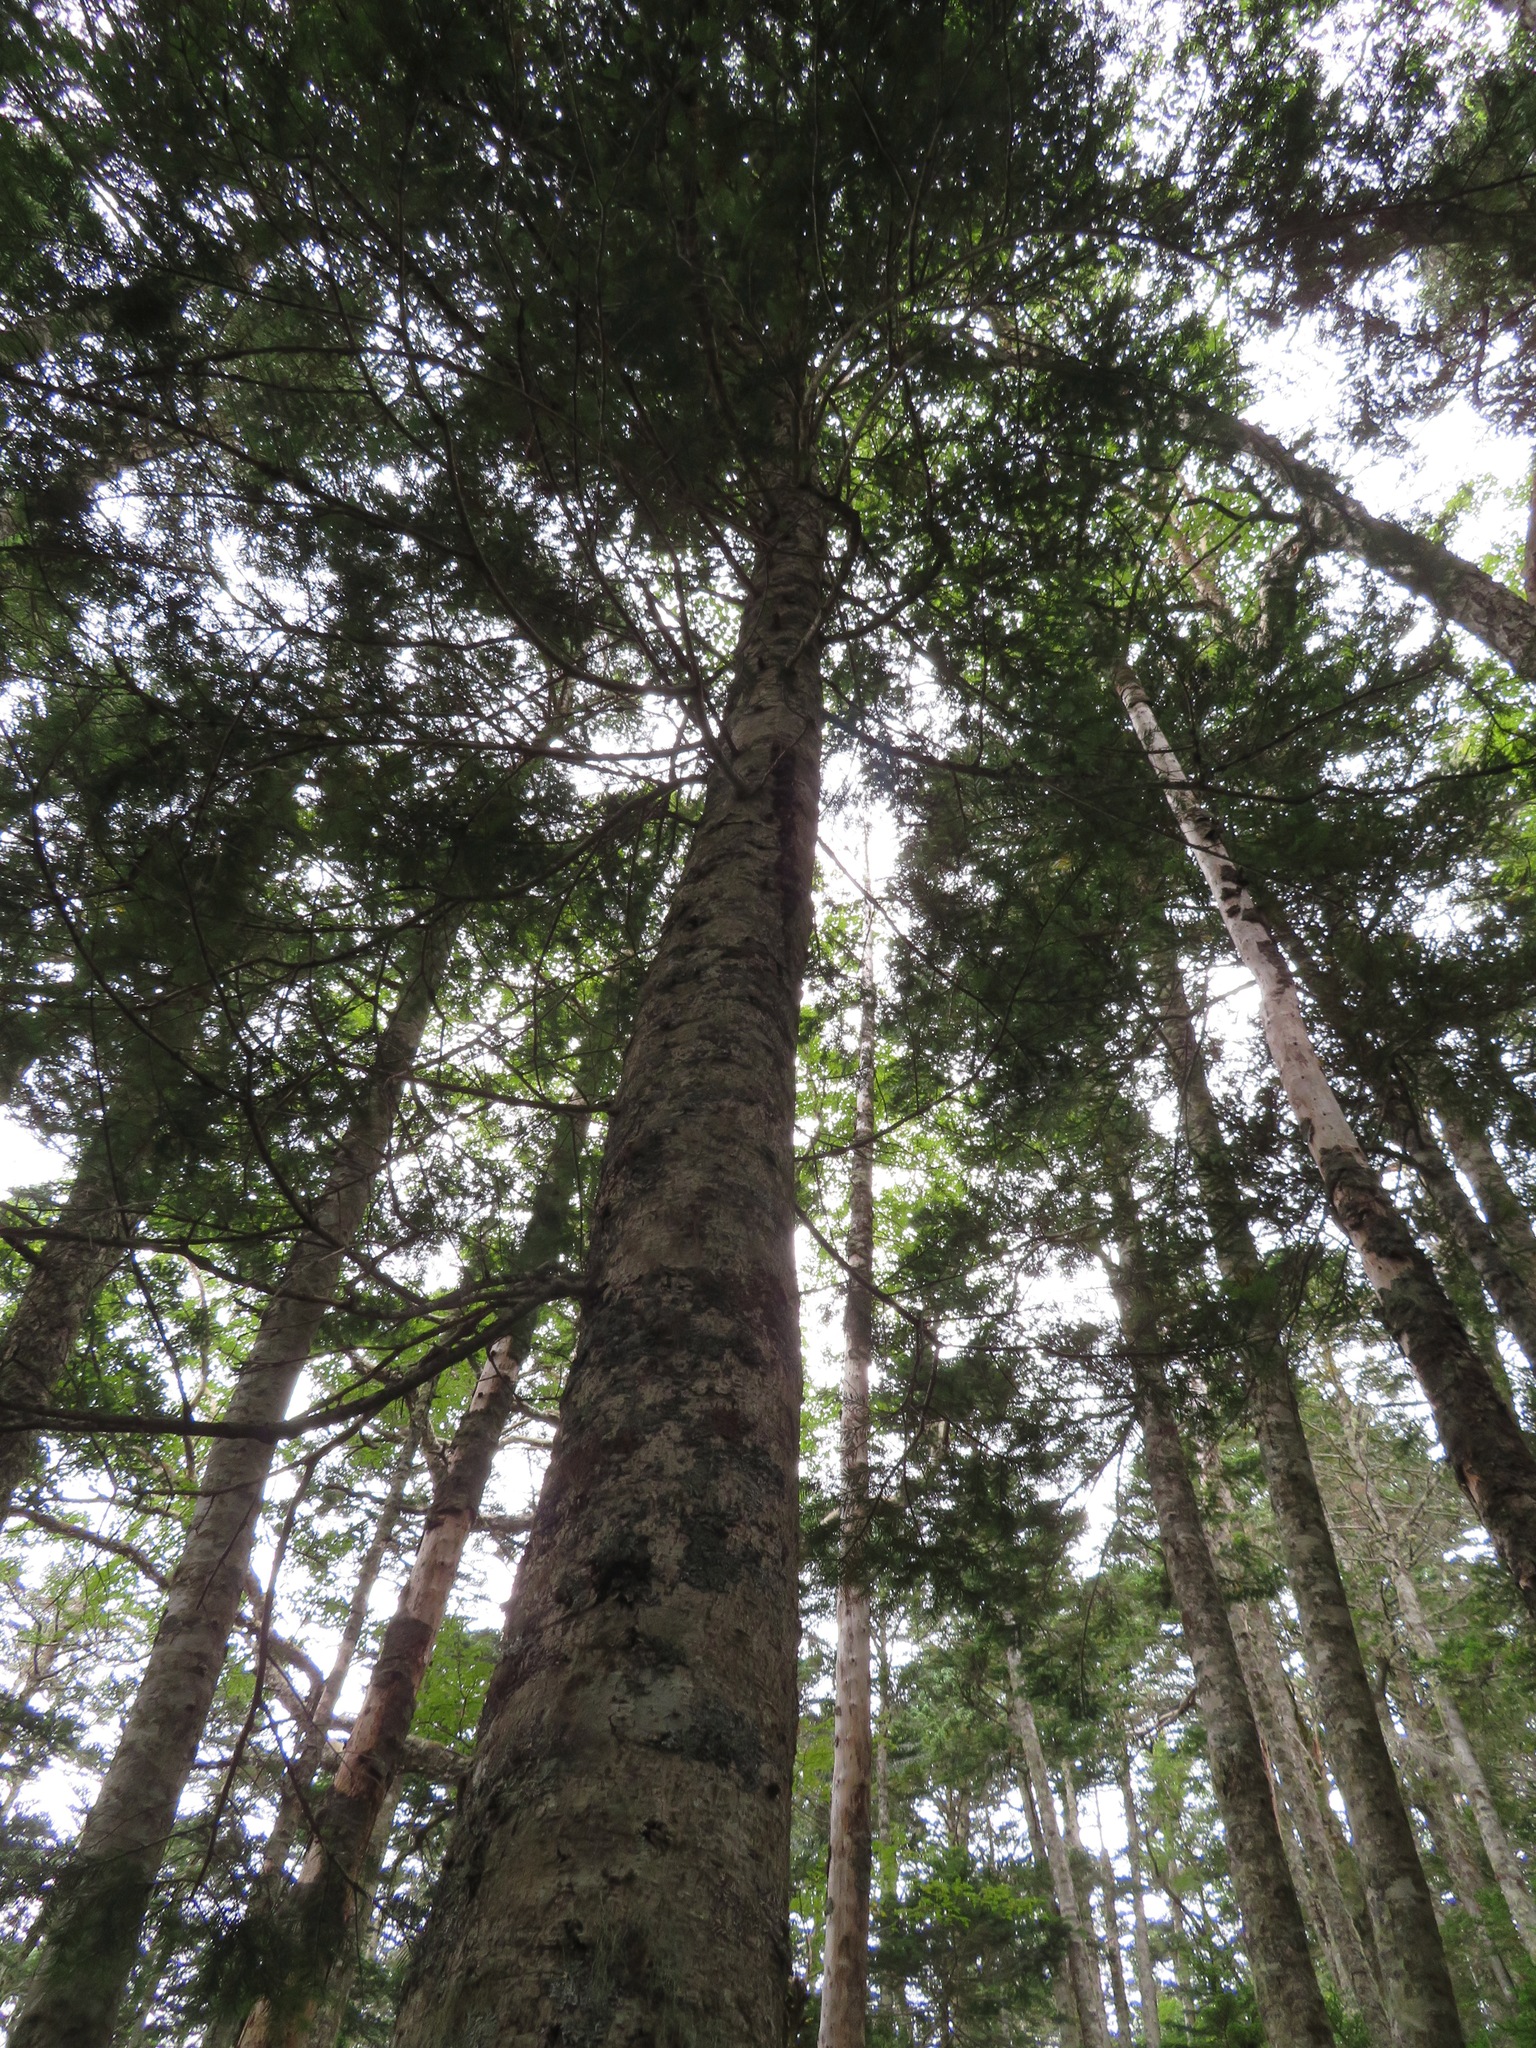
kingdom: Plantae
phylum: Tracheophyta
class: Pinopsida
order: Pinales
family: Pinaceae
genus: Abies
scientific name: Abies veitchii
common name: Veitch’s fir
